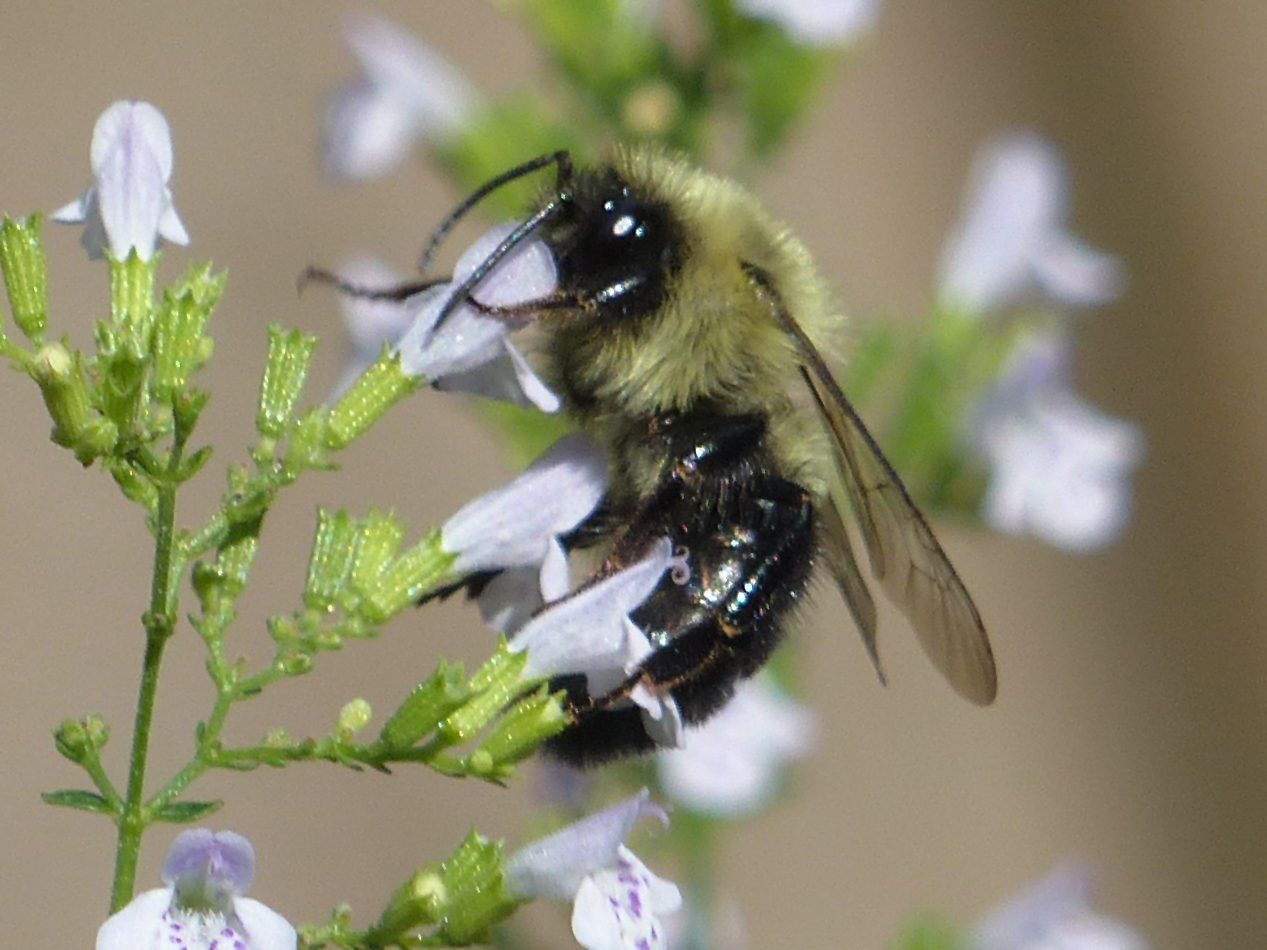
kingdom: Animalia
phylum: Arthropoda
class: Insecta
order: Hymenoptera
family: Apidae
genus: Bombus
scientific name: Bombus impatiens
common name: Common eastern bumble bee
